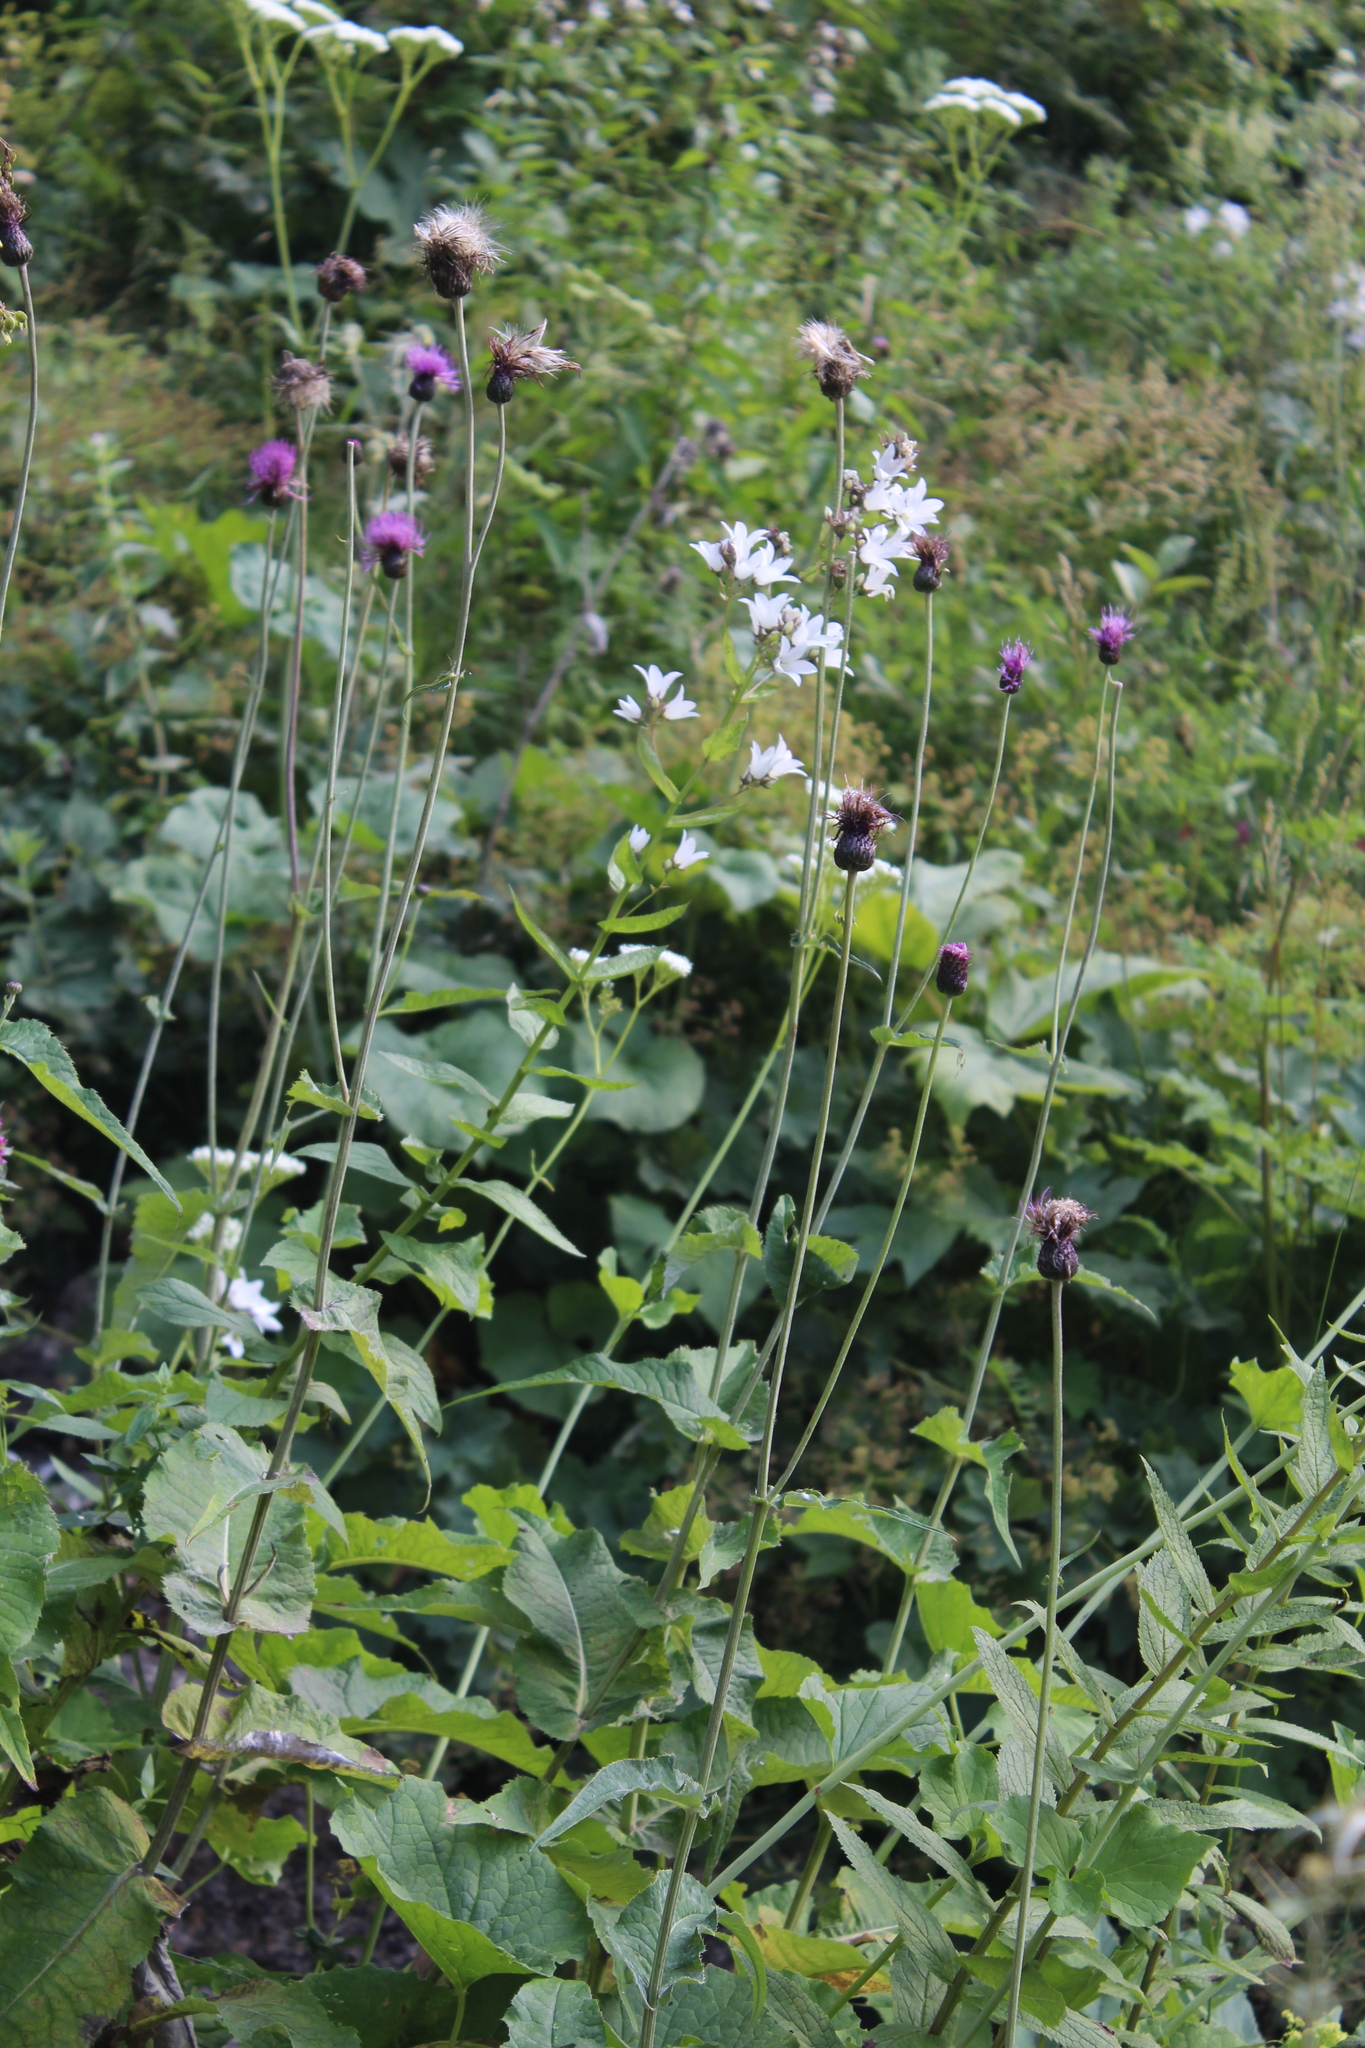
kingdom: Plantae
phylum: Tracheophyta
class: Magnoliopsida
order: Asterales
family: Asteraceae
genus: Cirsium
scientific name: Cirsium dealbatum
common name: Whitish thistle
